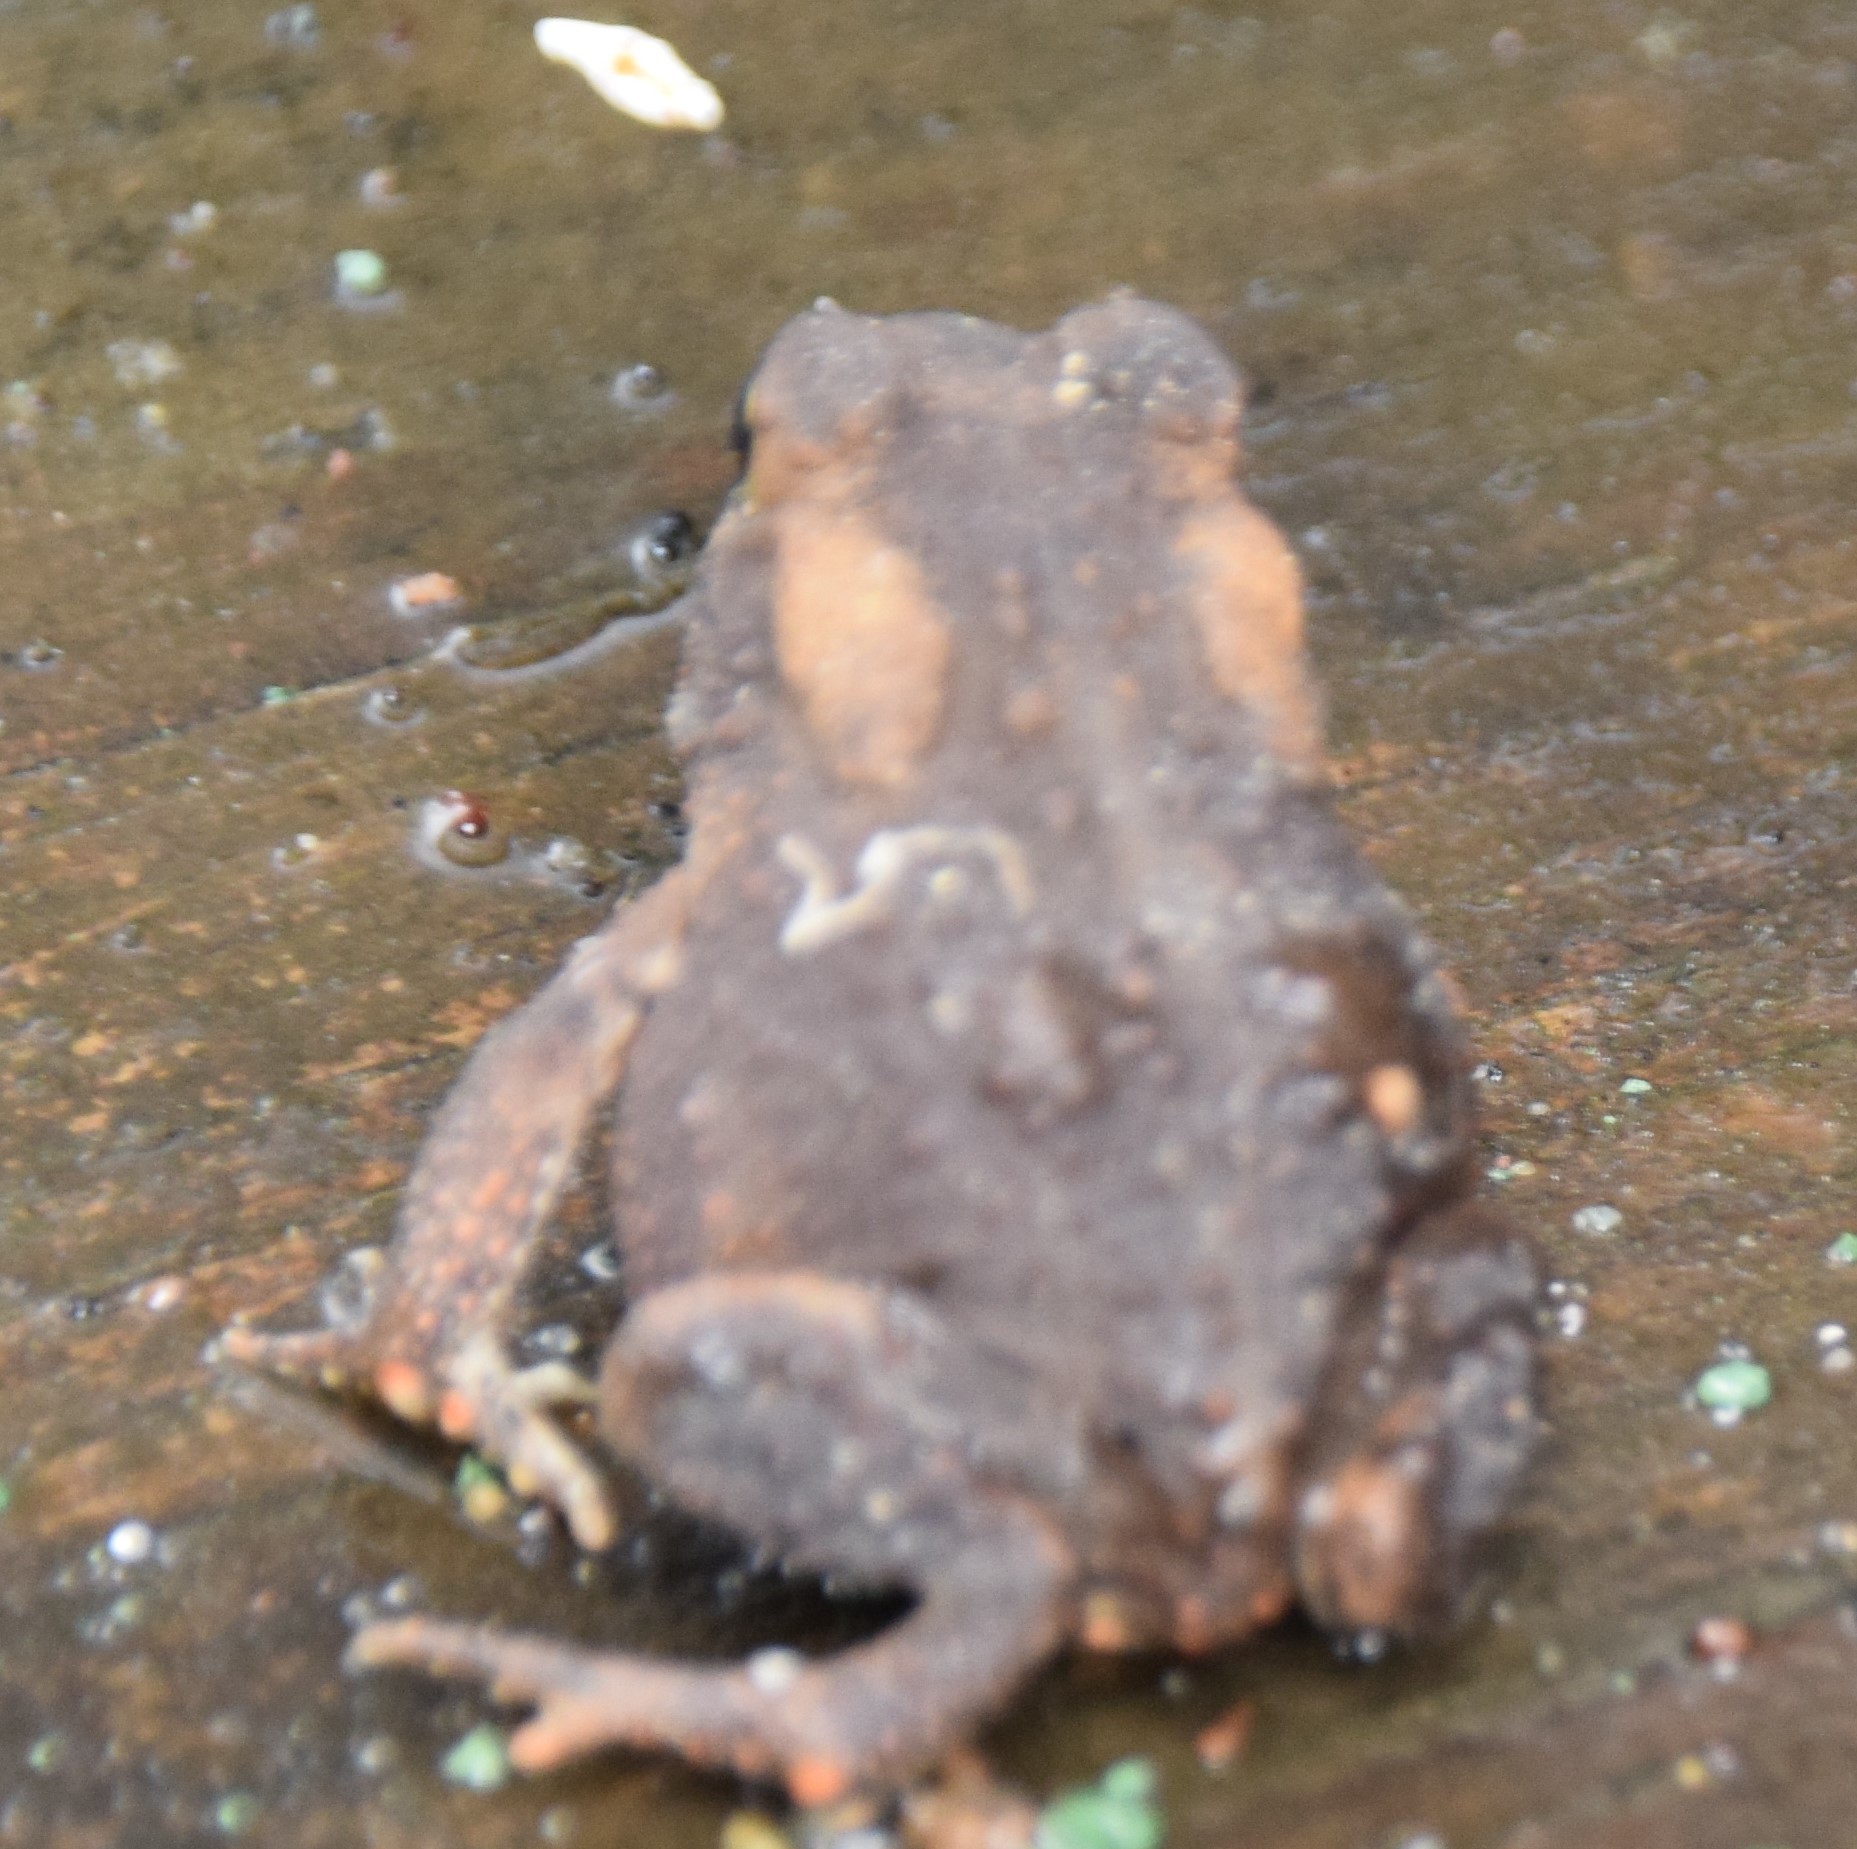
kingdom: Animalia
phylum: Chordata
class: Amphibia
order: Anura
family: Bufonidae
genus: Anaxyrus
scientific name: Anaxyrus americanus
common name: American toad
